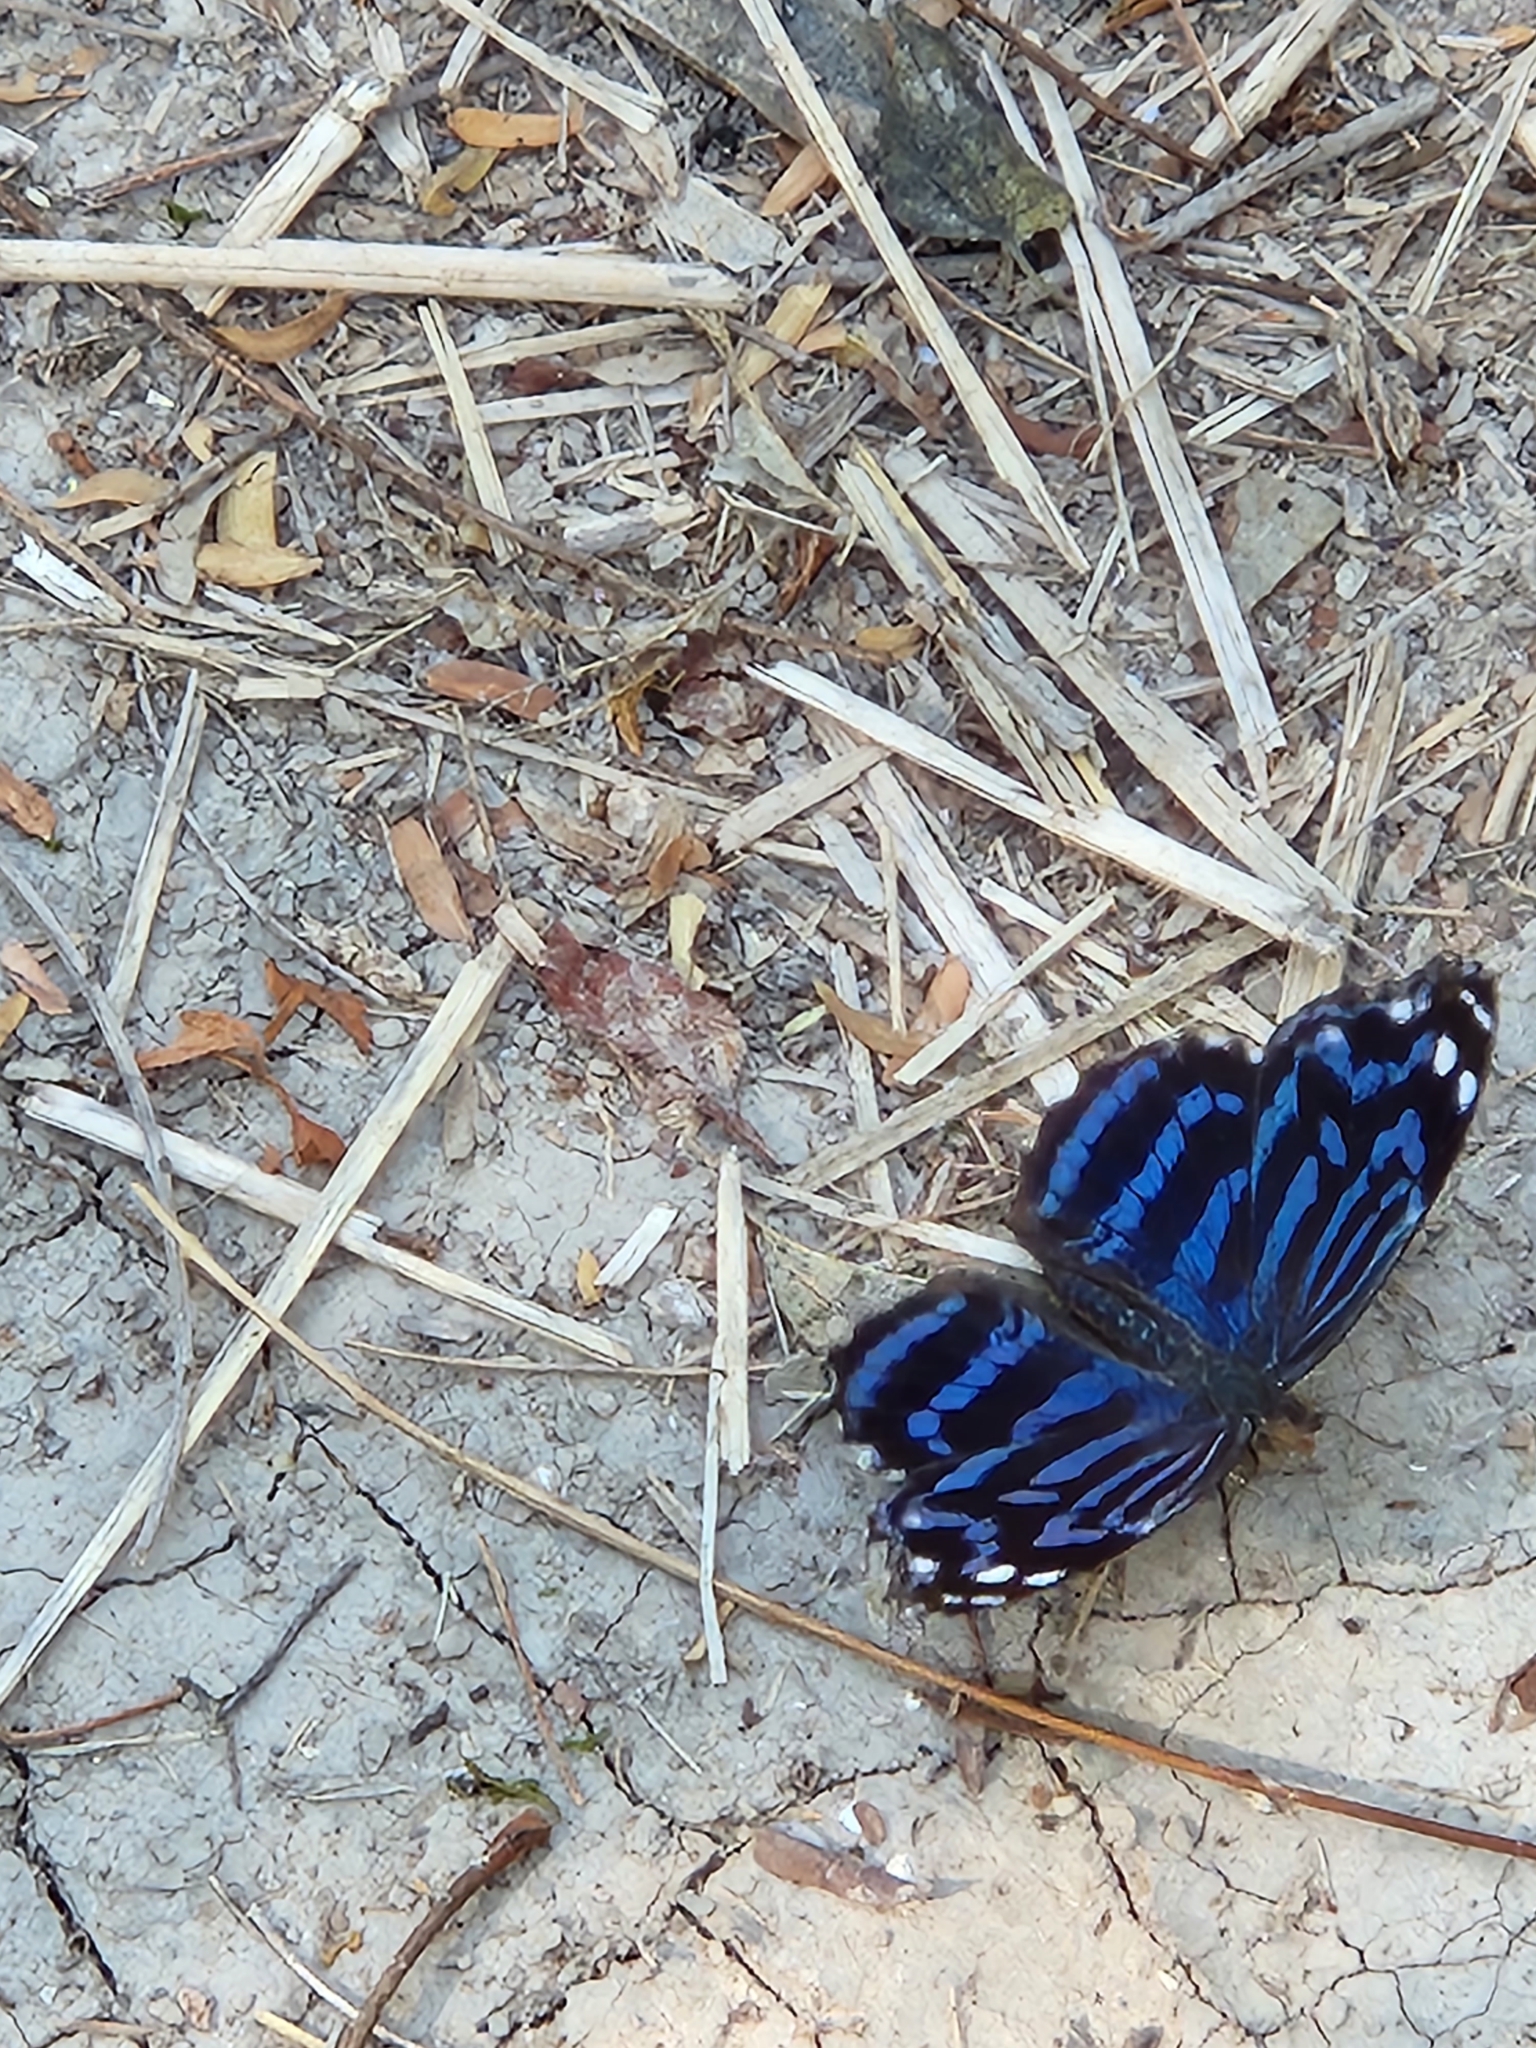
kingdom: Animalia
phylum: Arthropoda
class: Insecta
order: Lepidoptera
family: Nymphalidae
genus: Myscelia
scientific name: Myscelia ethusa
